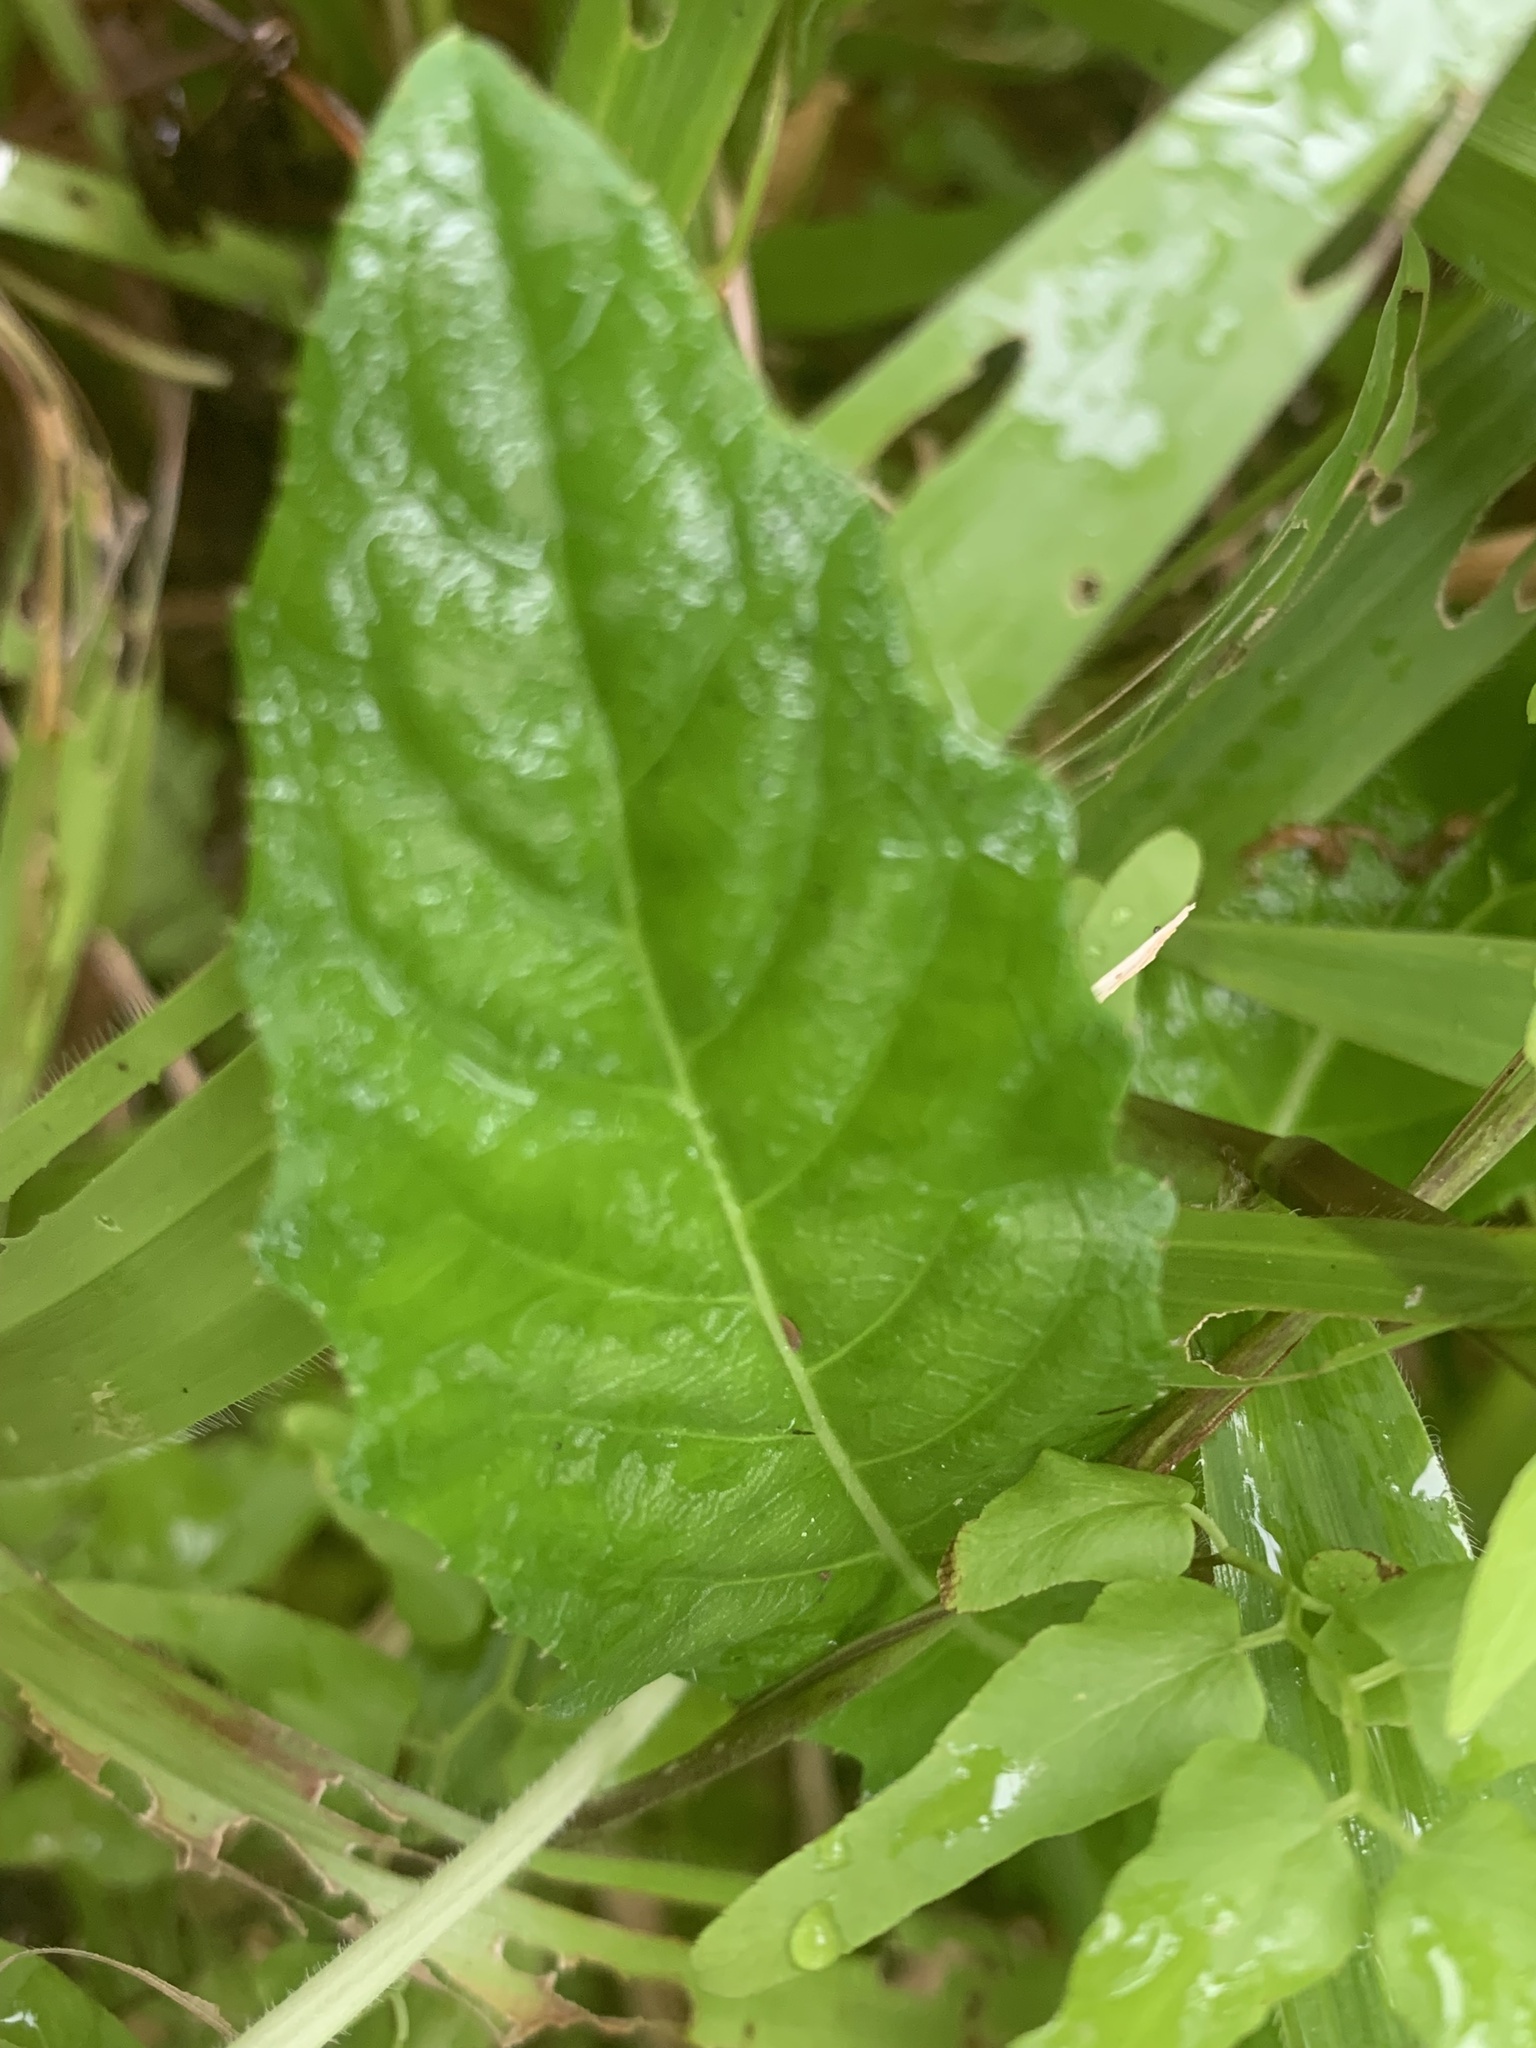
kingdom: Plantae
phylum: Tracheophyta
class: Magnoliopsida
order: Asterales
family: Campanulaceae
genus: Hippobroma
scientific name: Hippobroma longiflora
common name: Madamfate
